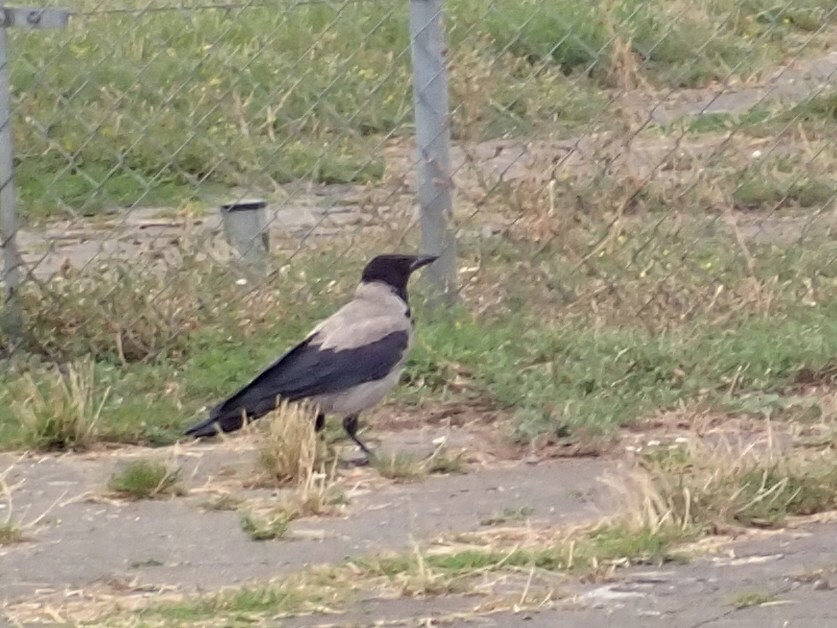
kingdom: Animalia
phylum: Chordata
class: Aves
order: Passeriformes
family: Corvidae
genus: Corvus
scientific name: Corvus cornix
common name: Hooded crow
